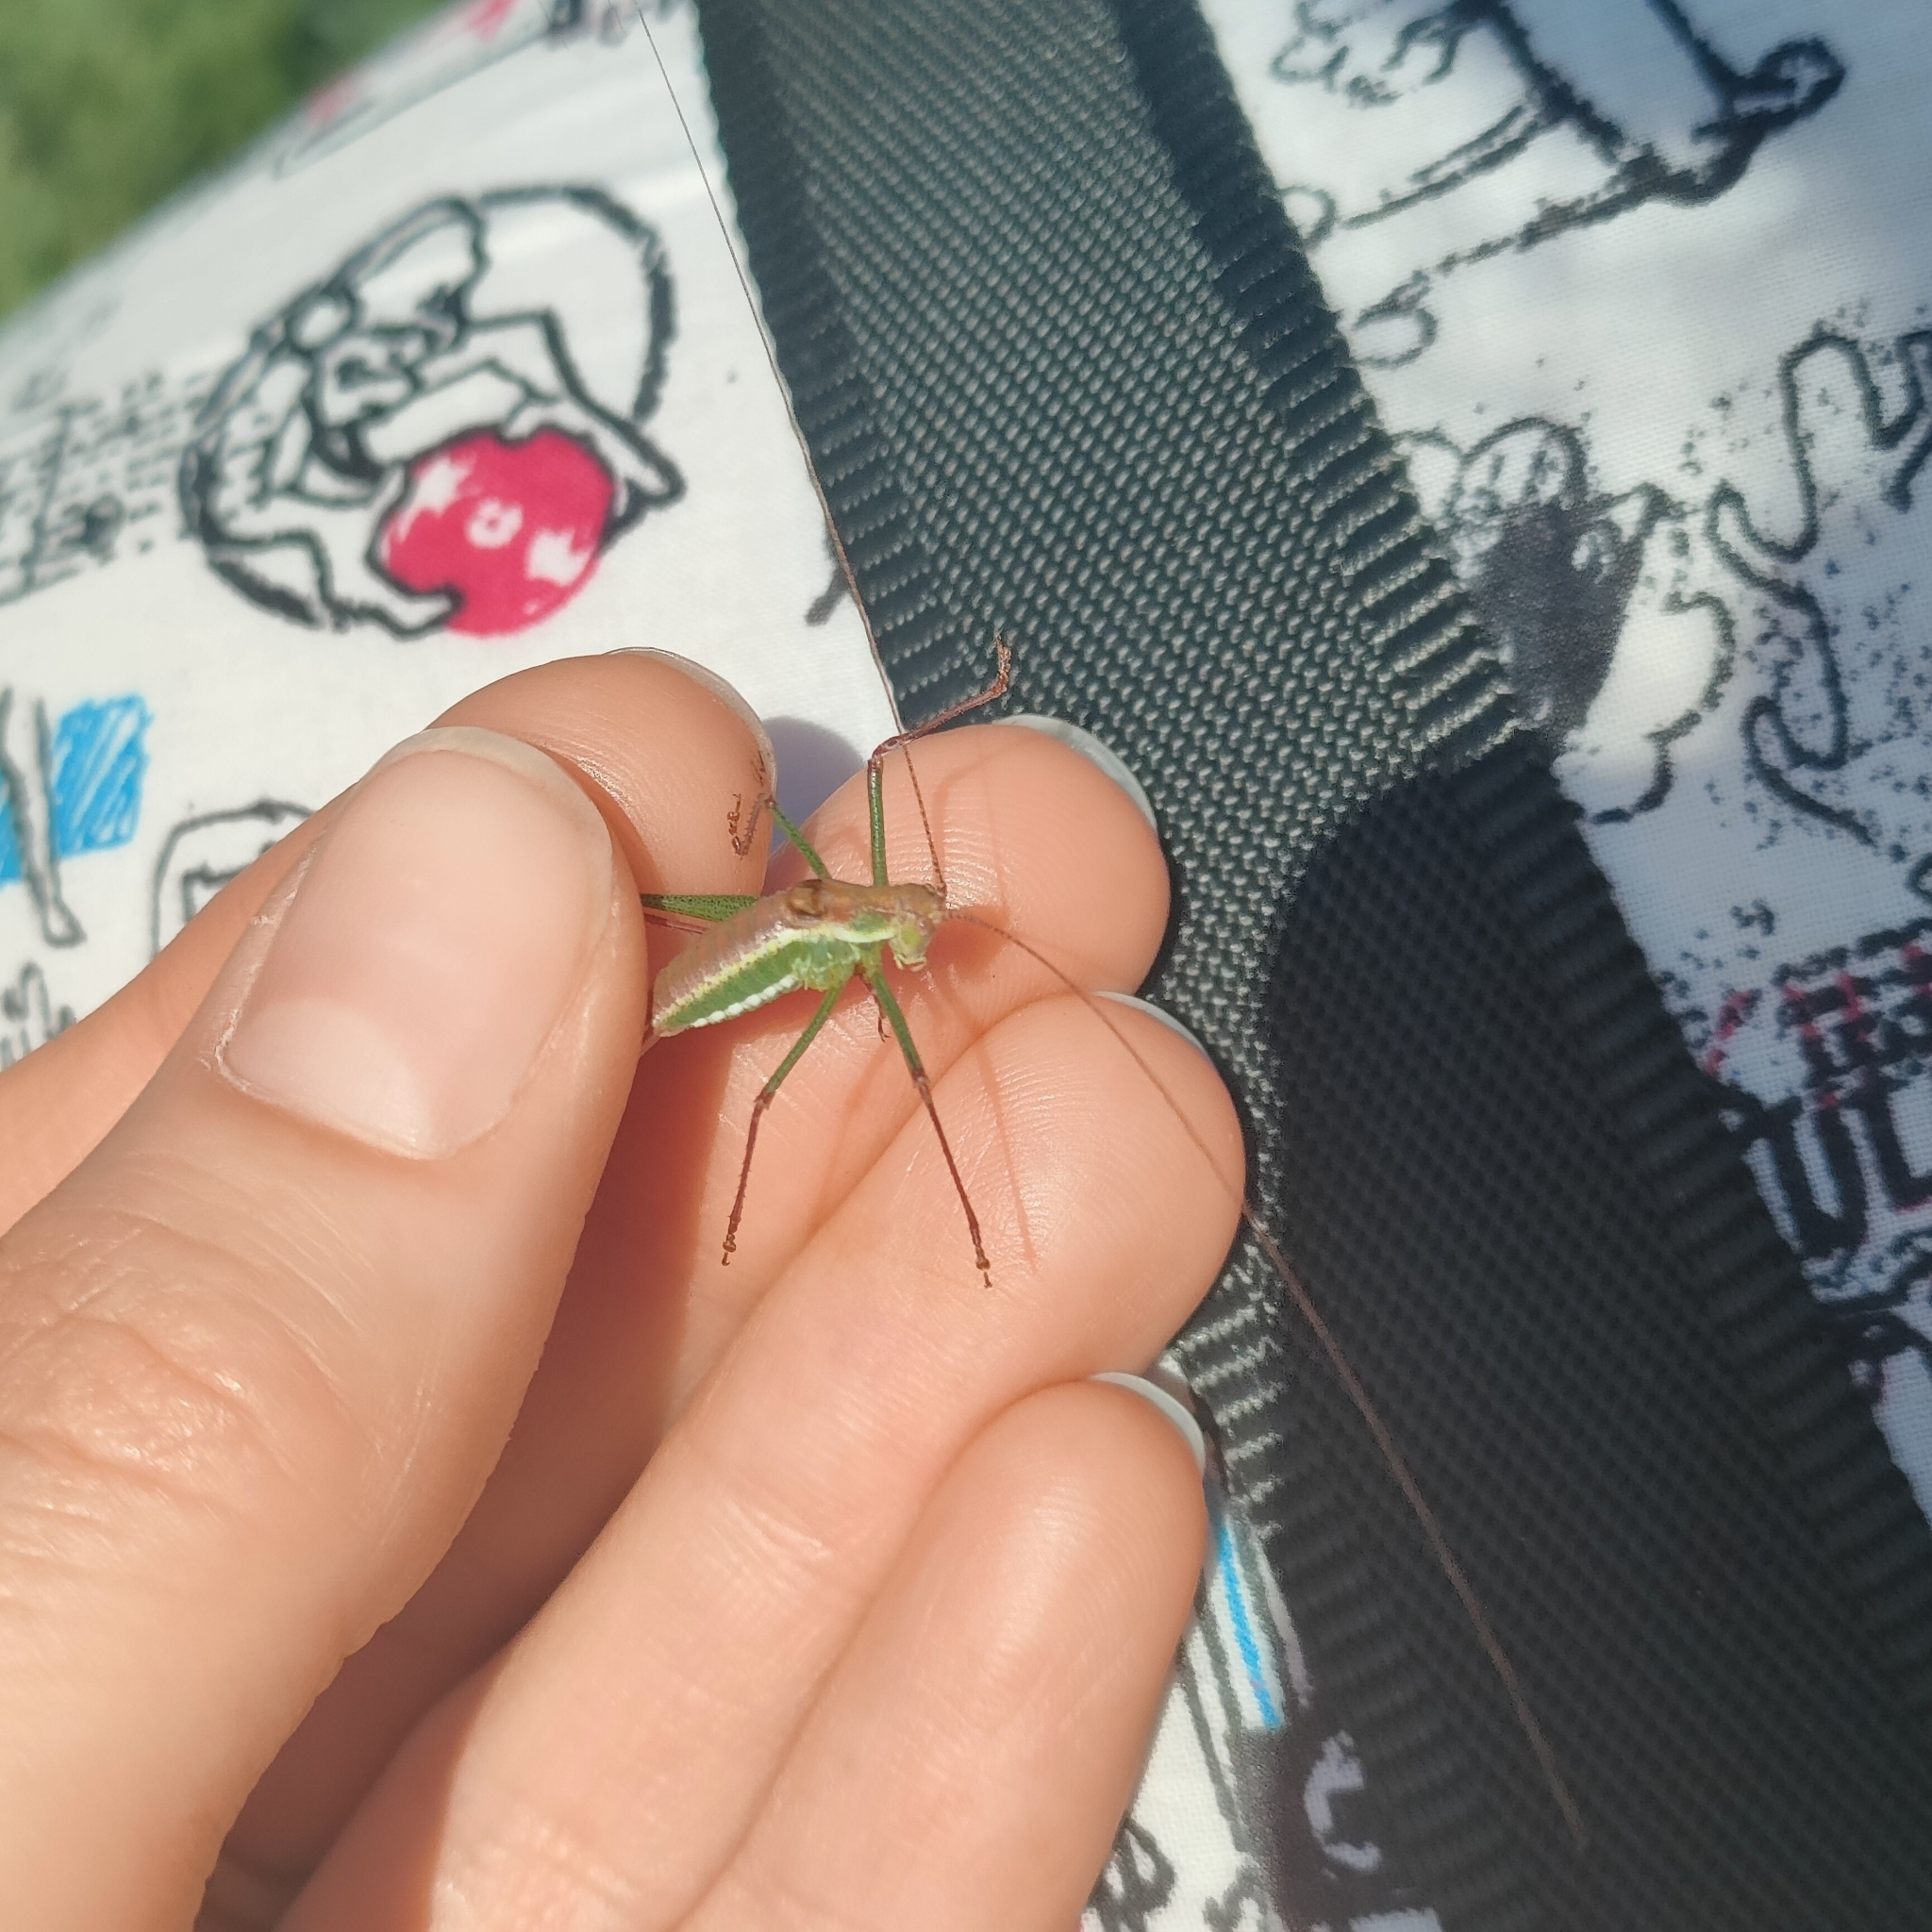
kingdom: Animalia
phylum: Arthropoda
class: Insecta
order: Orthoptera
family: Tettigoniidae
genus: Leptophyes
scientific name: Leptophyes albovittata
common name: Striped bush-cricket
